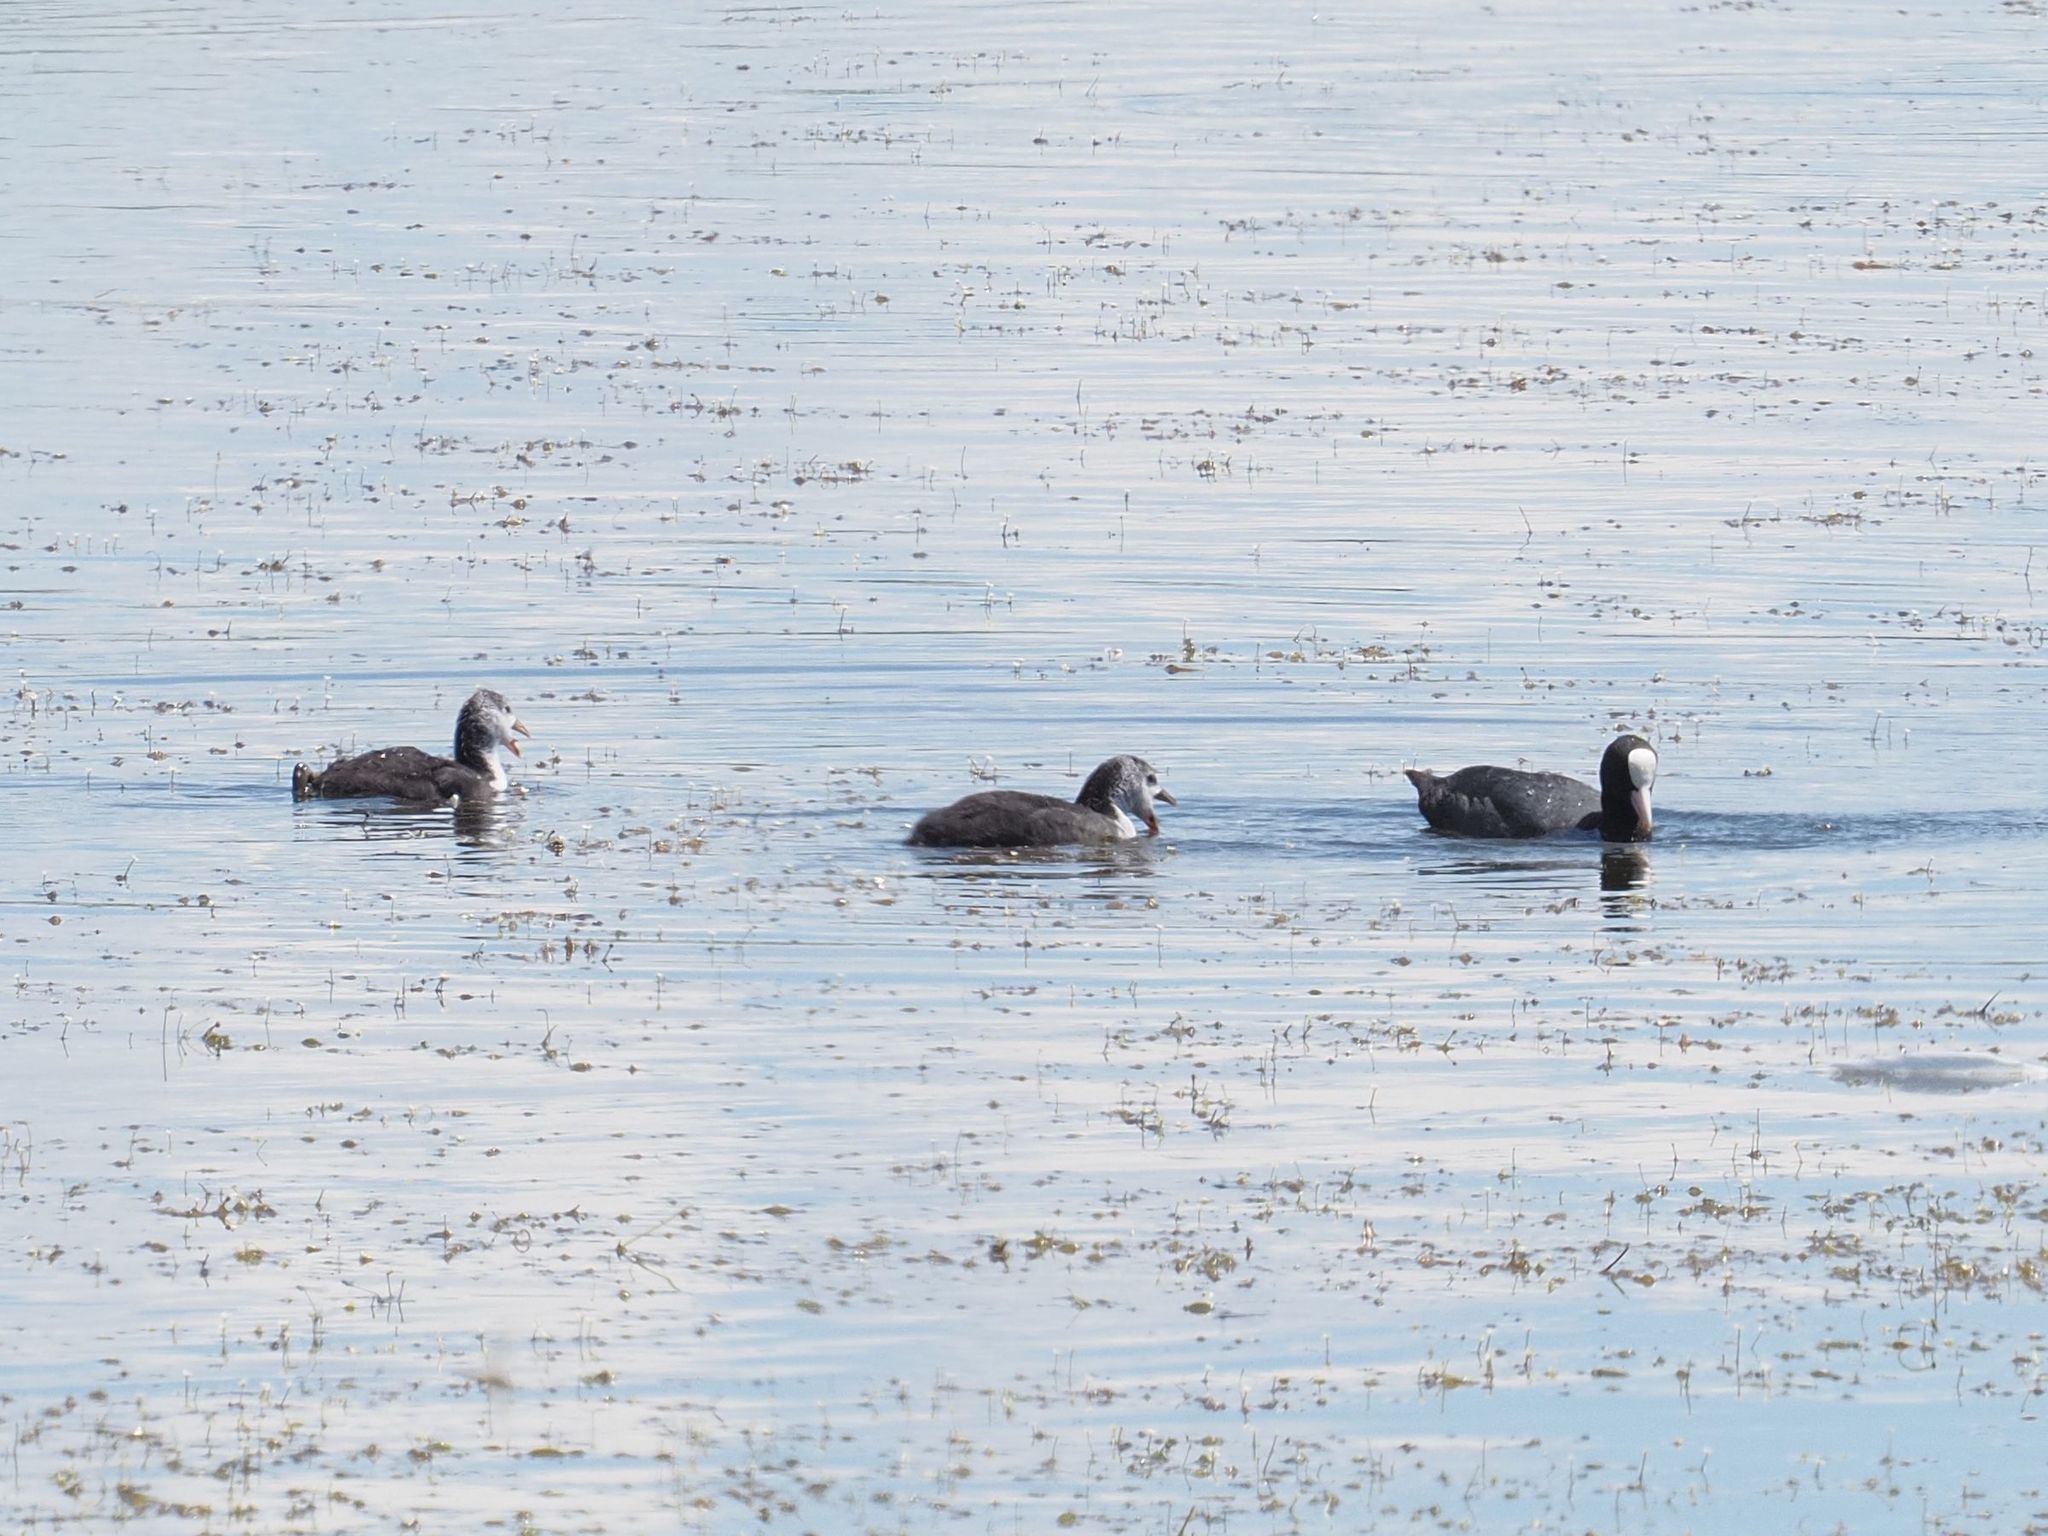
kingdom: Animalia
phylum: Chordata
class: Aves
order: Gruiformes
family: Rallidae
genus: Fulica
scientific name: Fulica atra
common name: Eurasian coot
